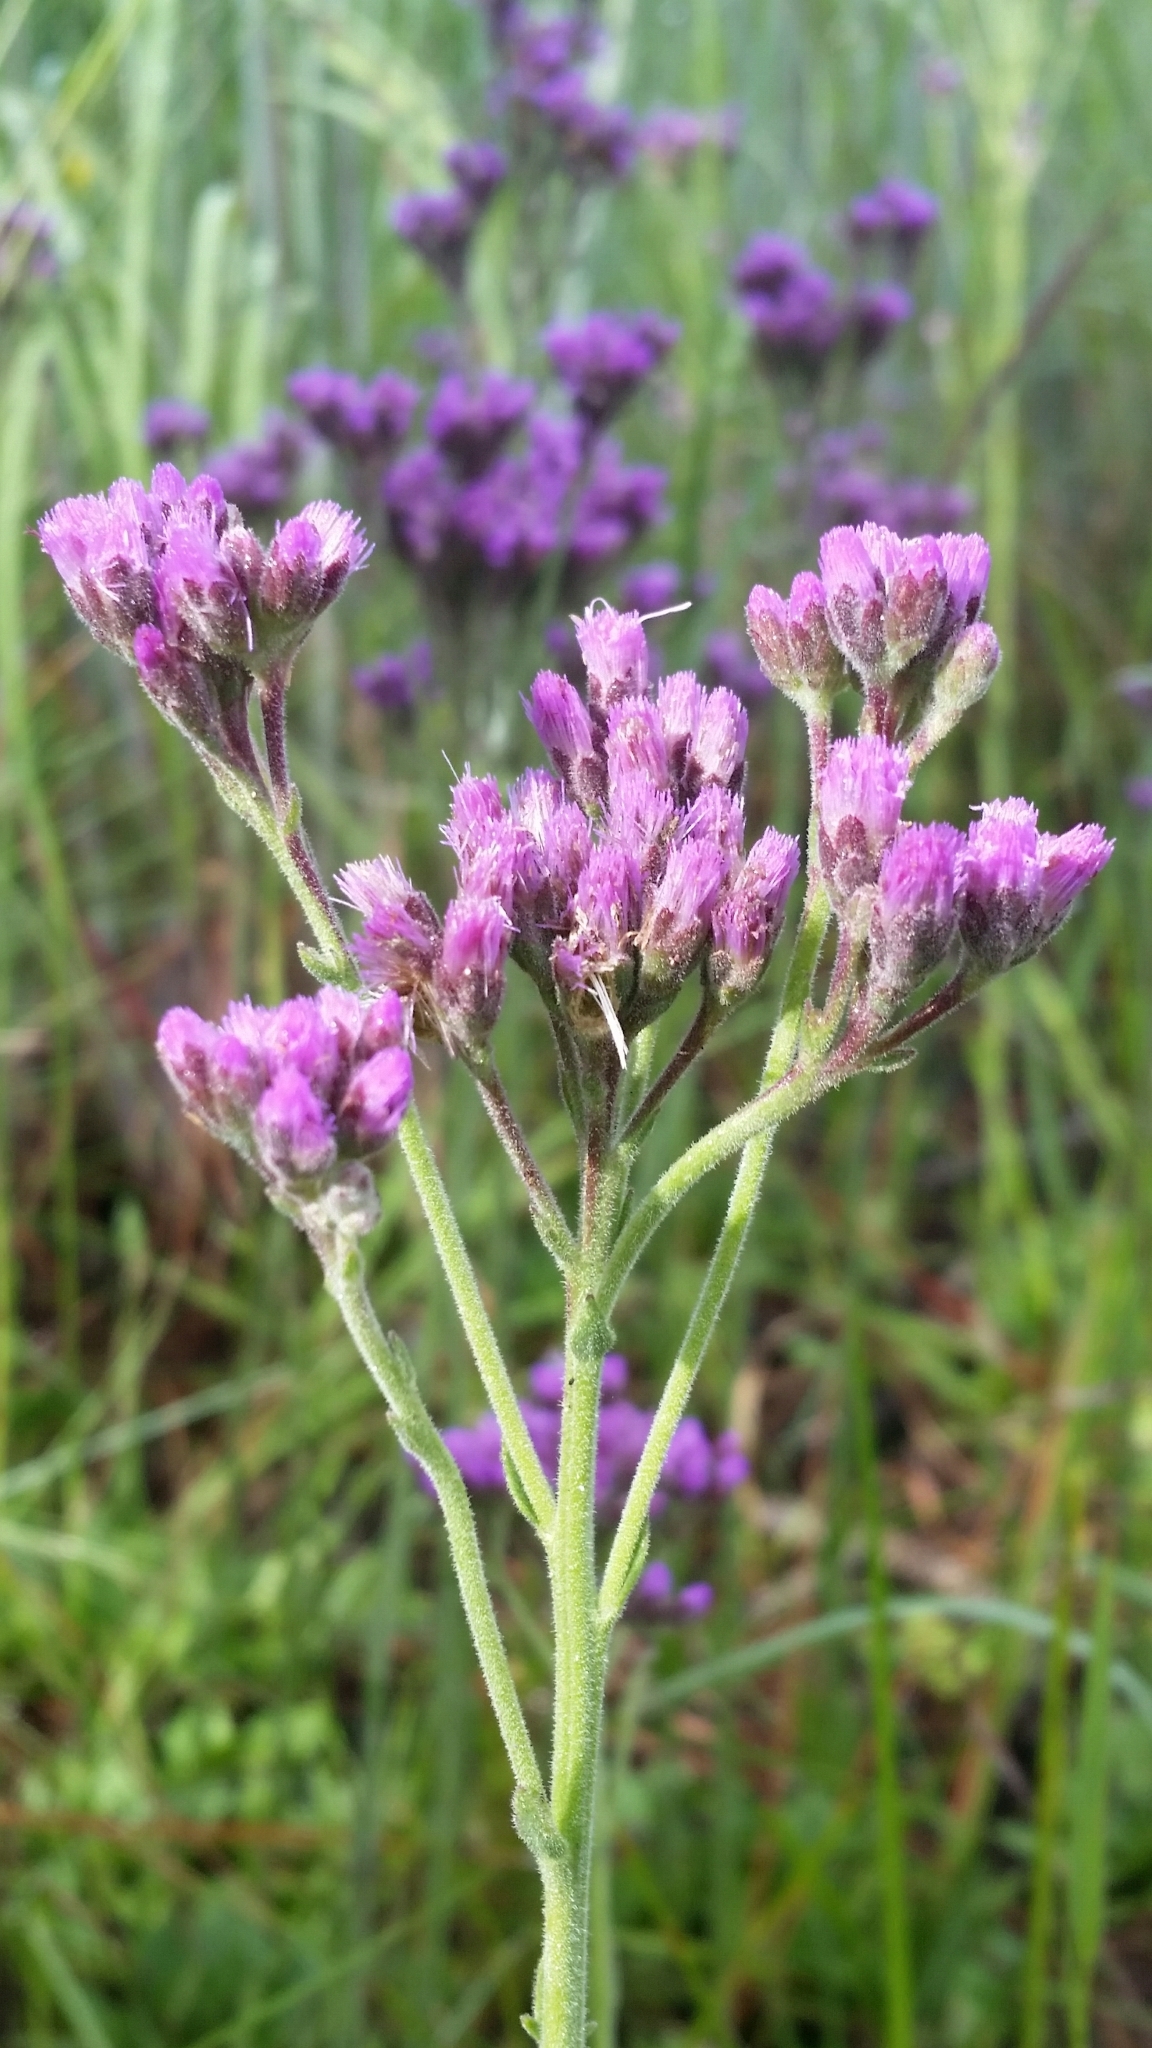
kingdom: Plantae
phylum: Tracheophyta
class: Magnoliopsida
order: Asterales
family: Asteraceae
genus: Carphephorus
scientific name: Carphephorus carnosus
